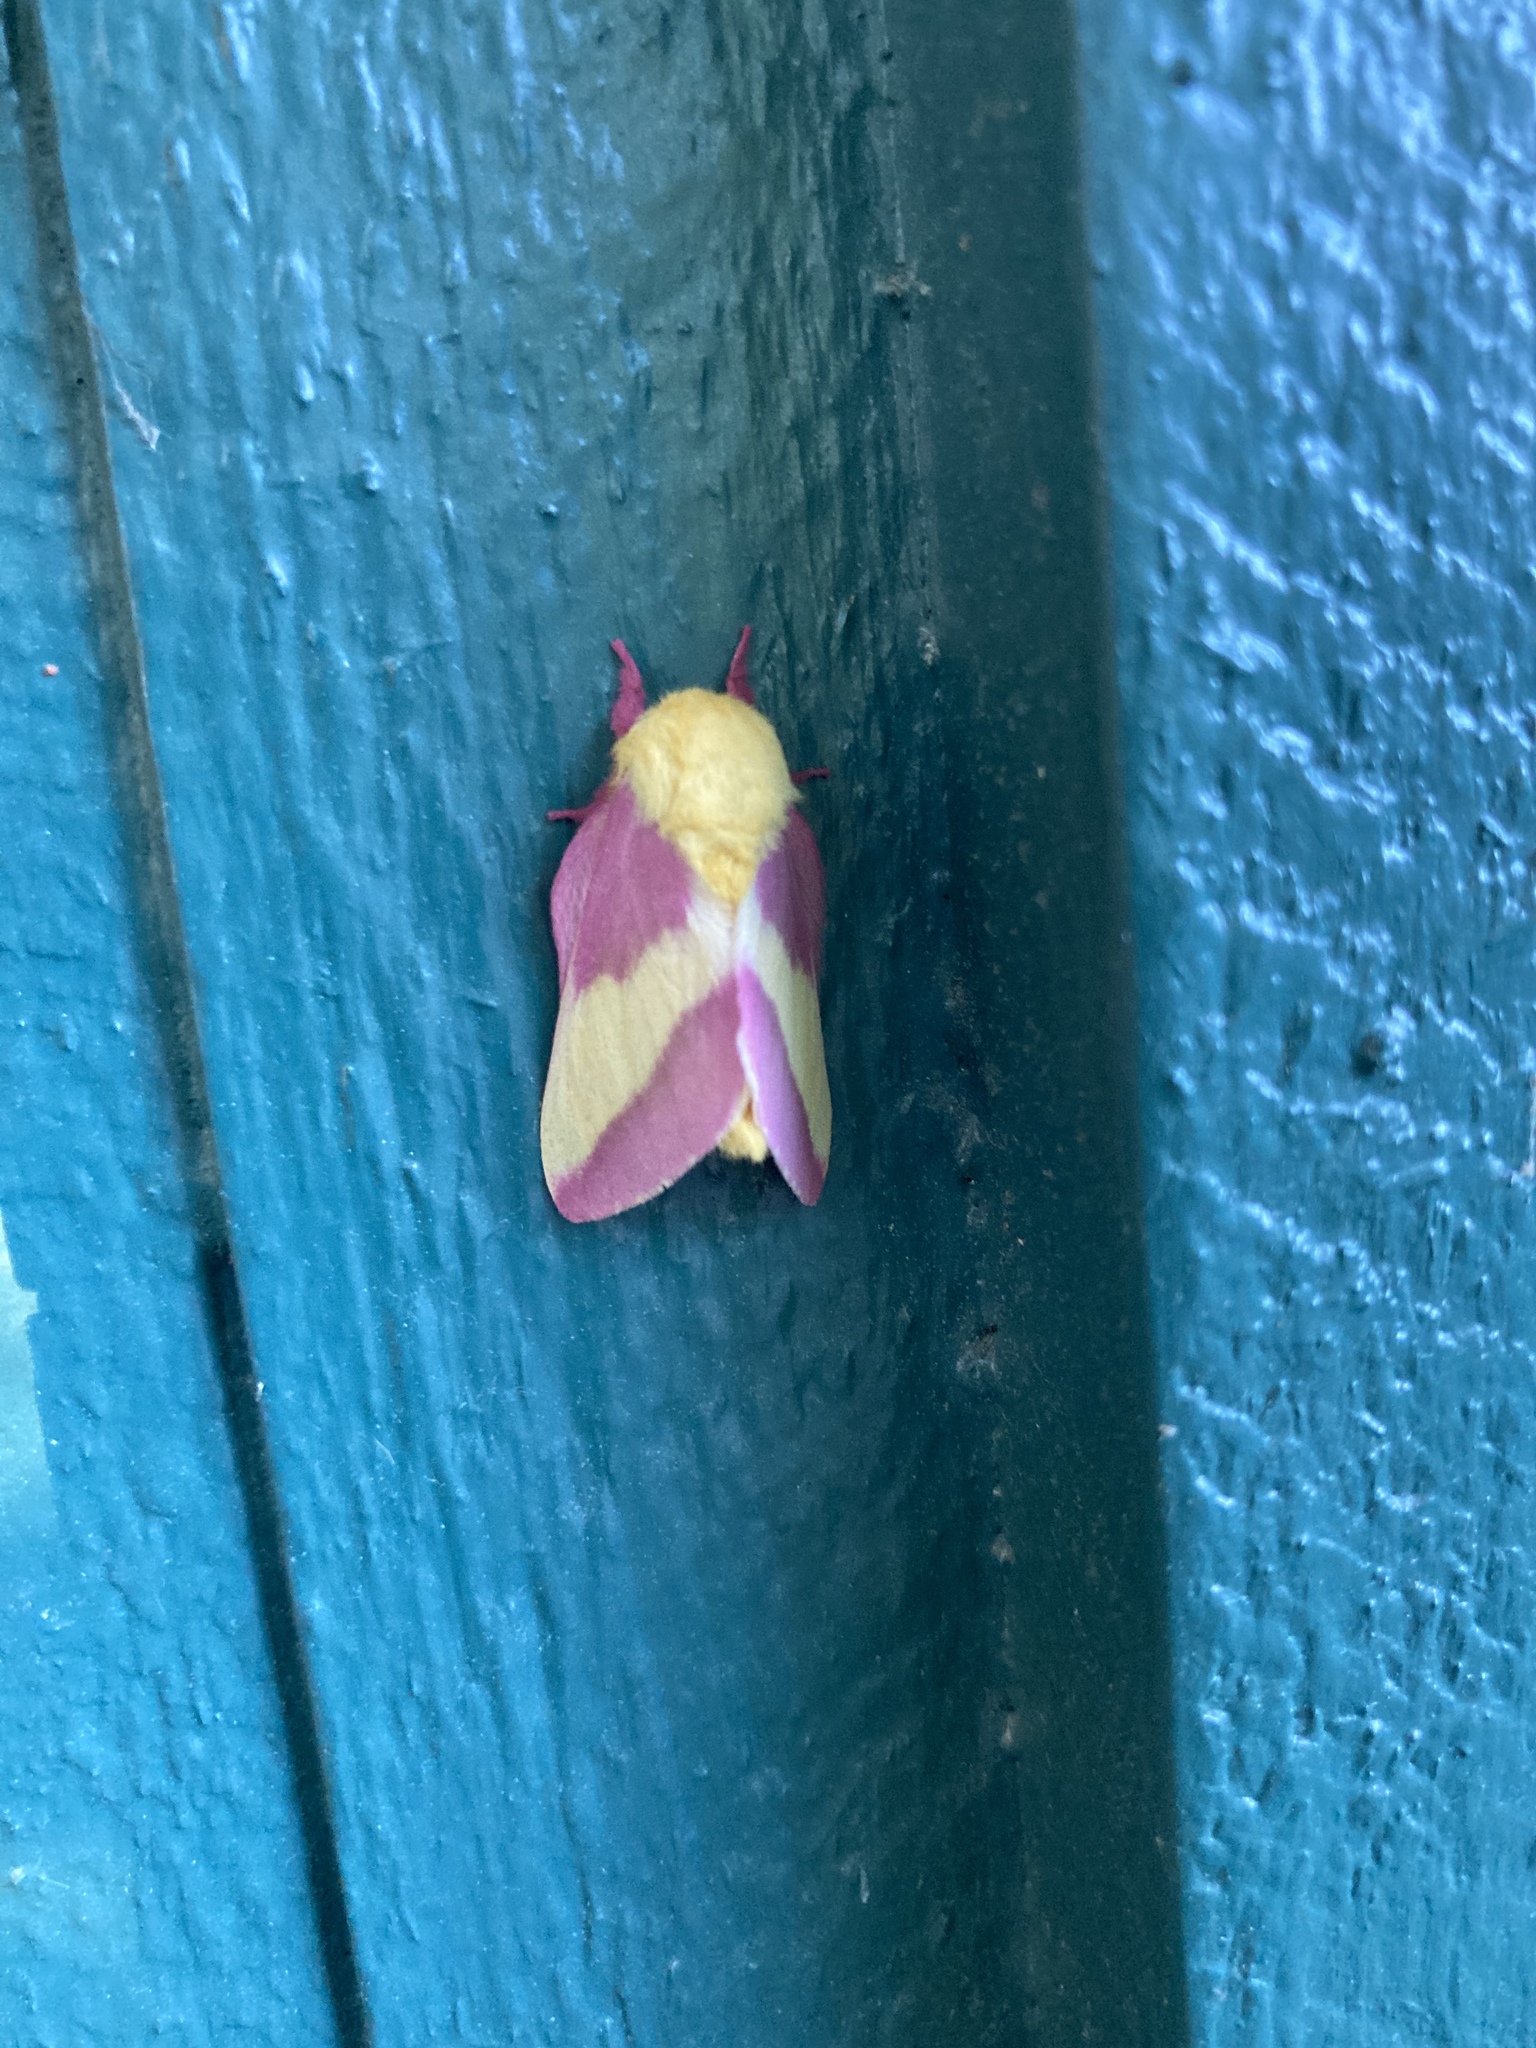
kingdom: Animalia
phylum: Arthropoda
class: Insecta
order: Lepidoptera
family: Saturniidae
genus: Dryocampa
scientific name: Dryocampa rubicunda
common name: Rosy maple moth
